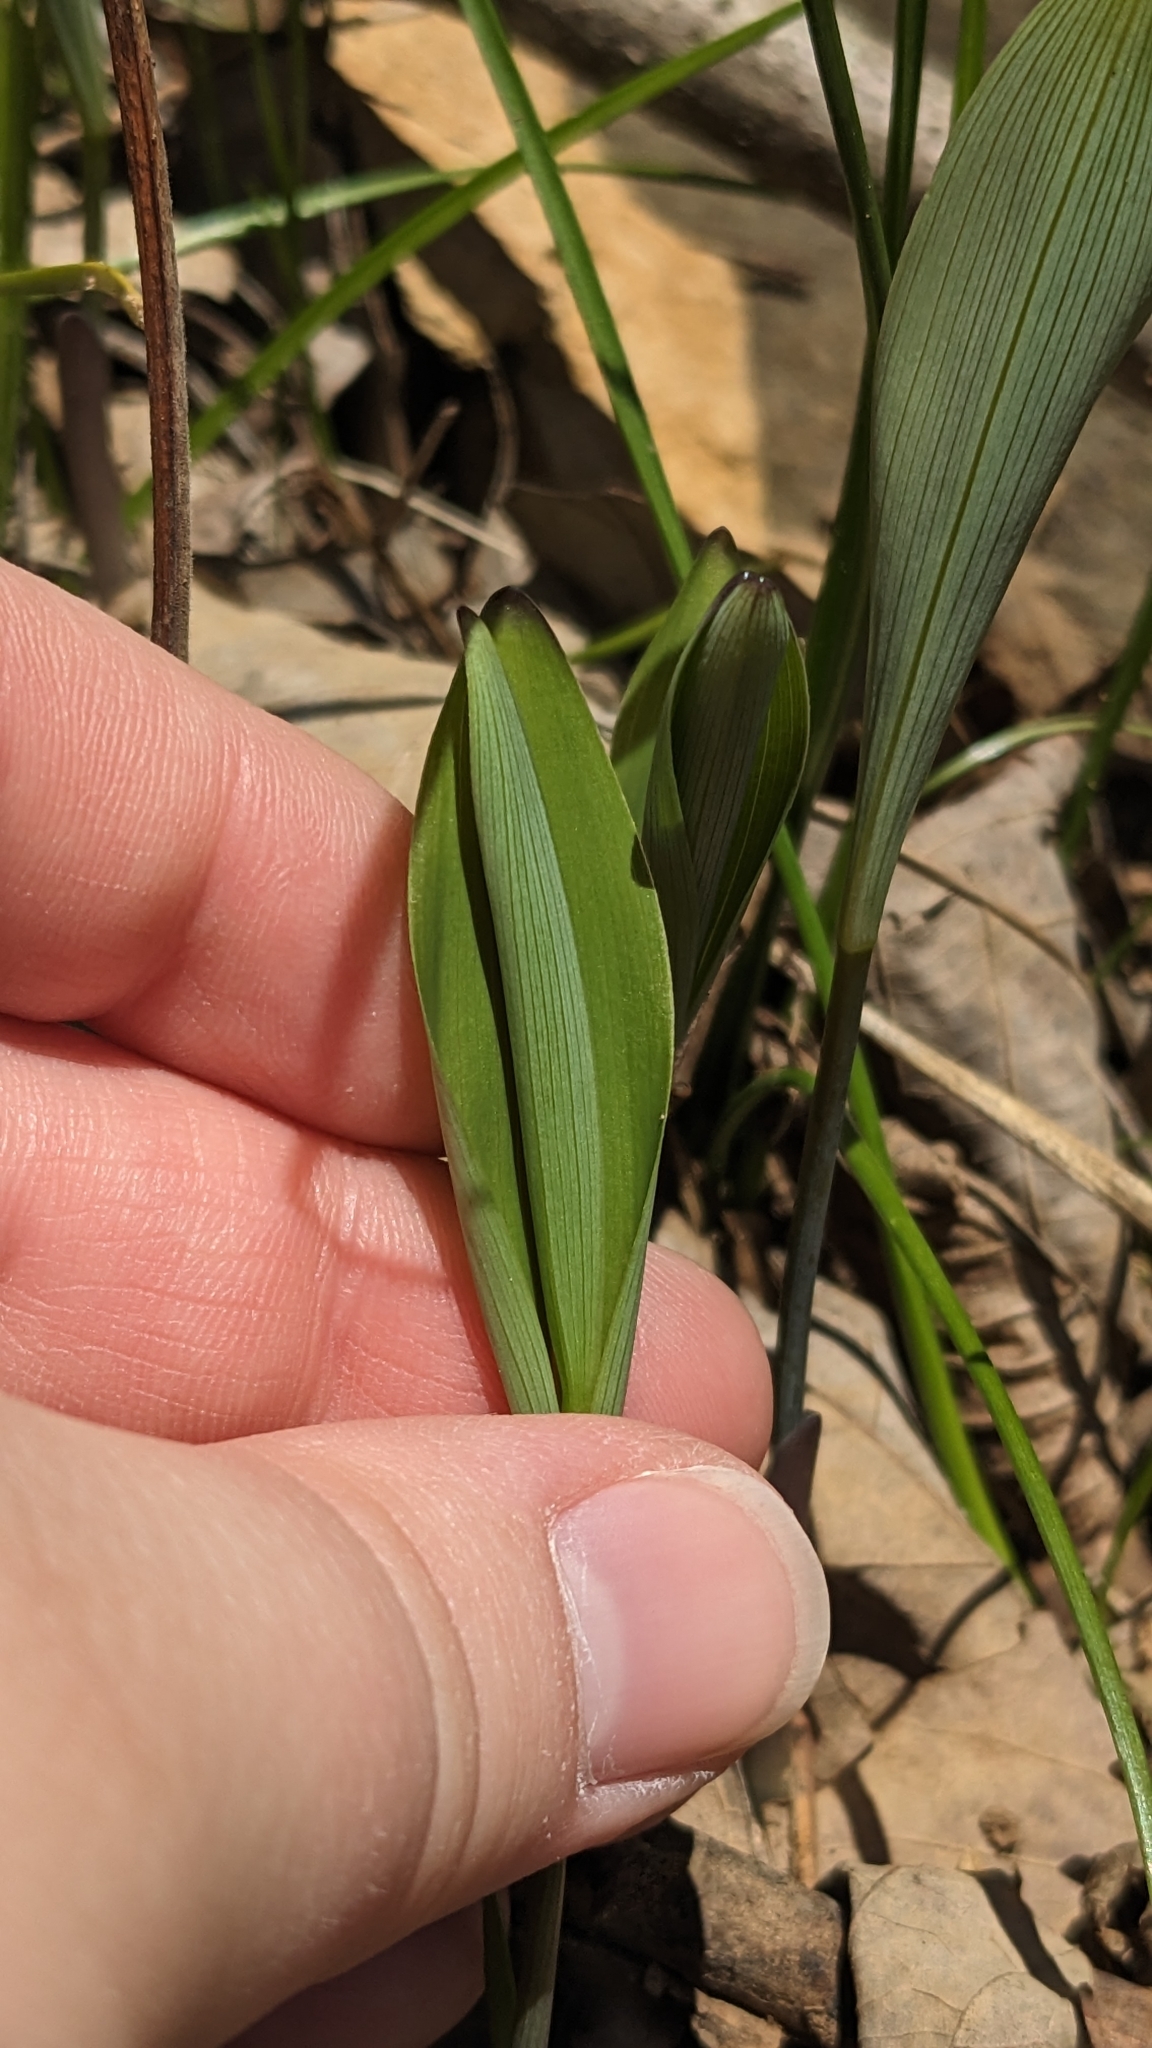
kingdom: Plantae
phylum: Tracheophyta
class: Liliopsida
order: Asparagales
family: Asparagaceae
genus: Polygonatum
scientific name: Polygonatum biflorum
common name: American solomon's-seal
